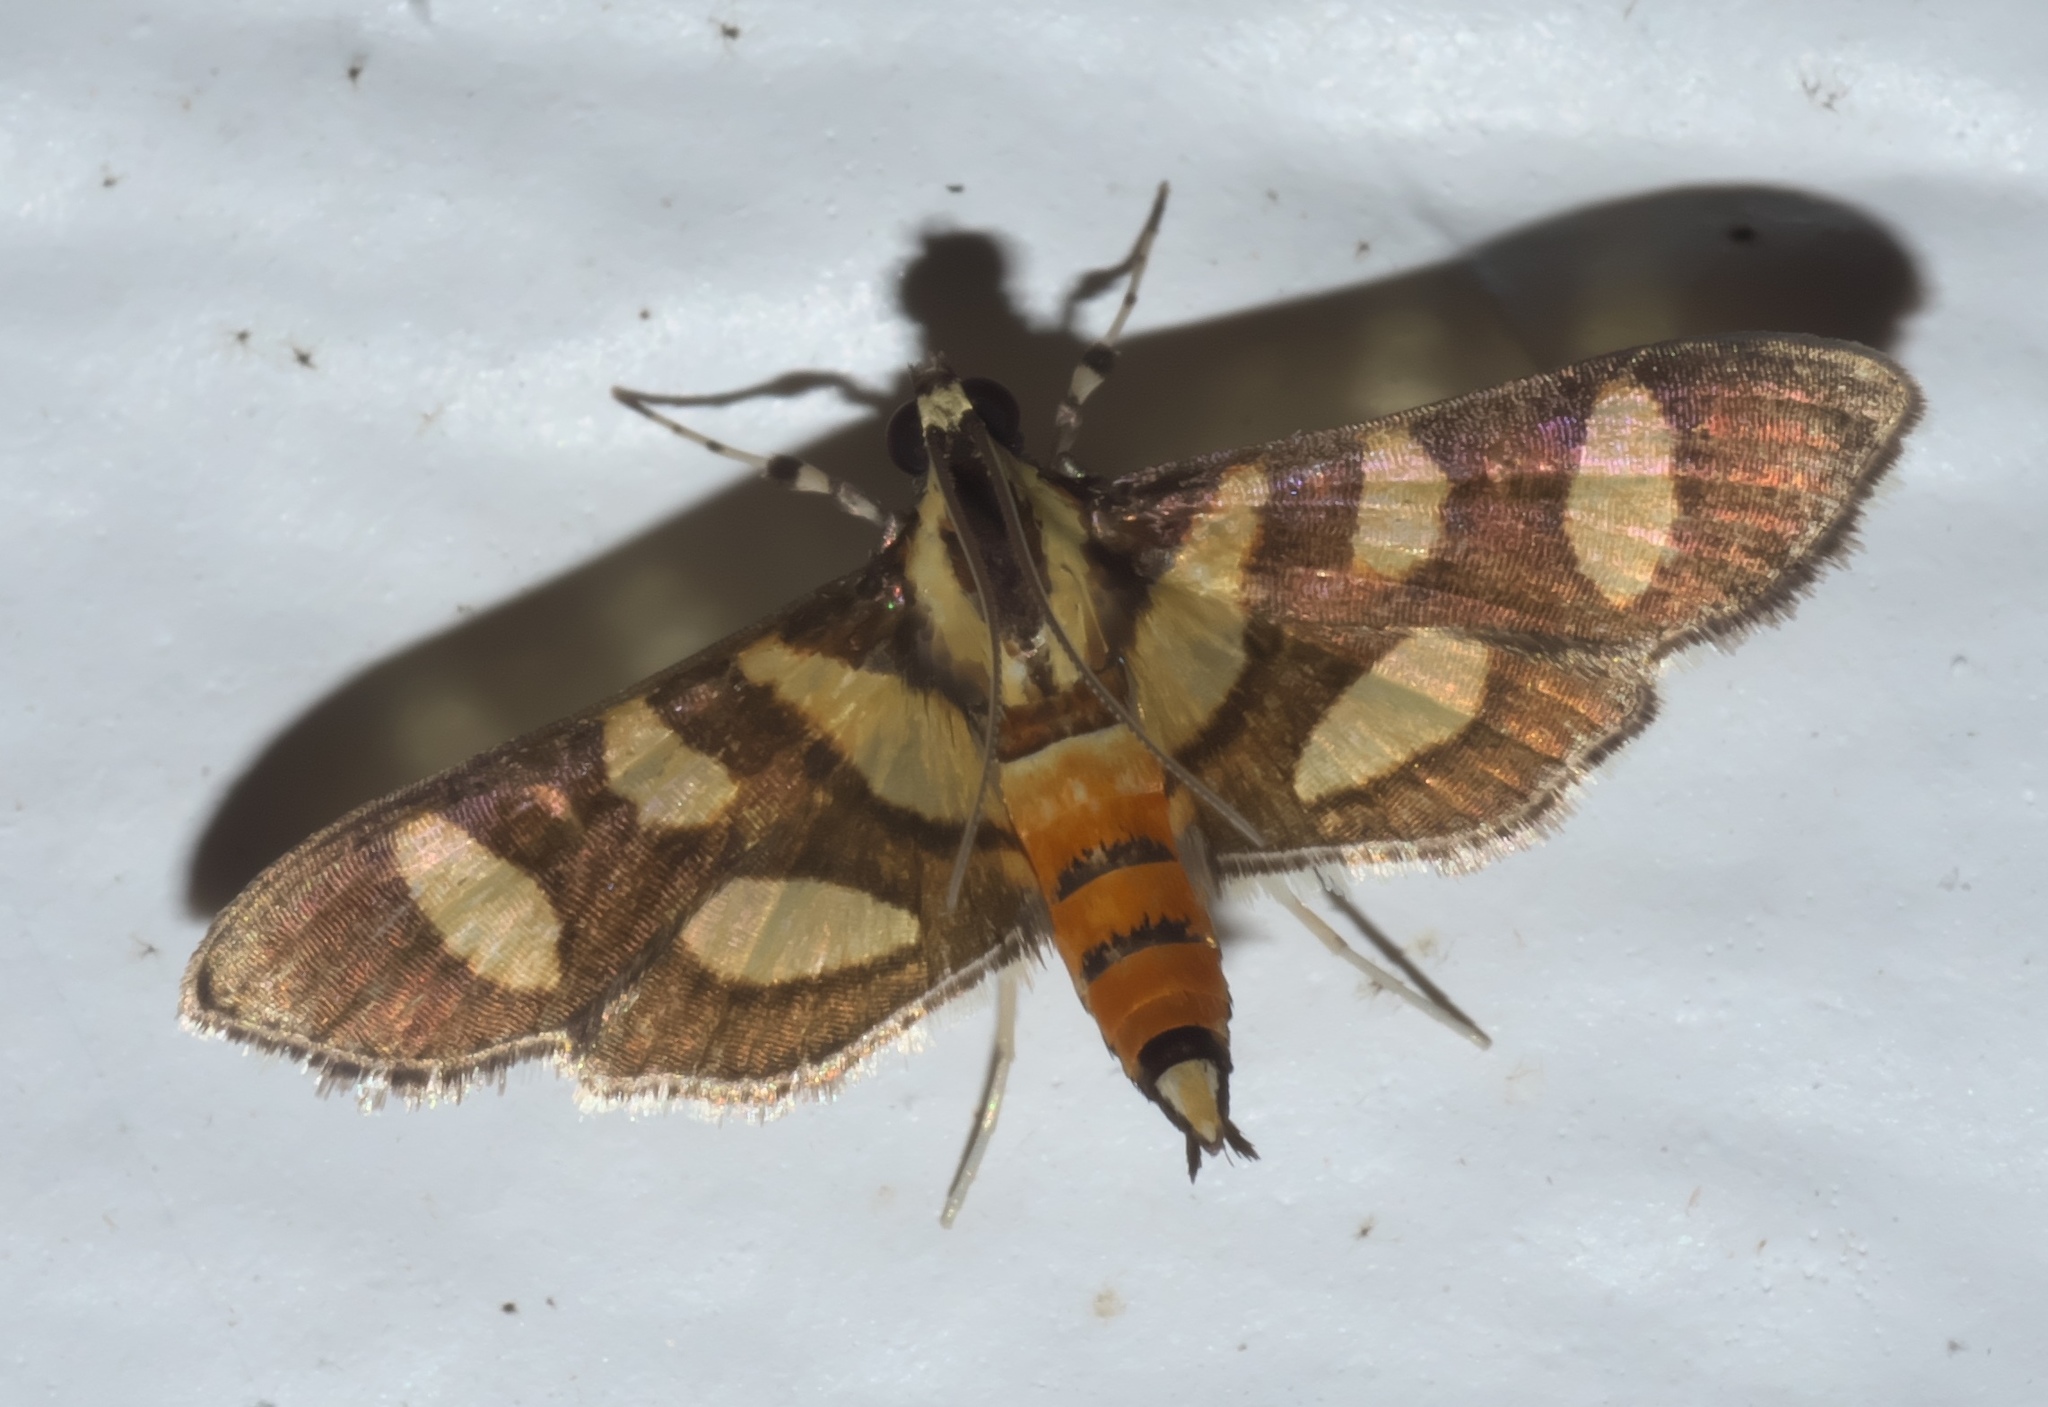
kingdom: Animalia
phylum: Arthropoda
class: Insecta
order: Lepidoptera
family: Crambidae
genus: Syngamia
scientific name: Syngamia florella
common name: Orange-spotted flower moth
